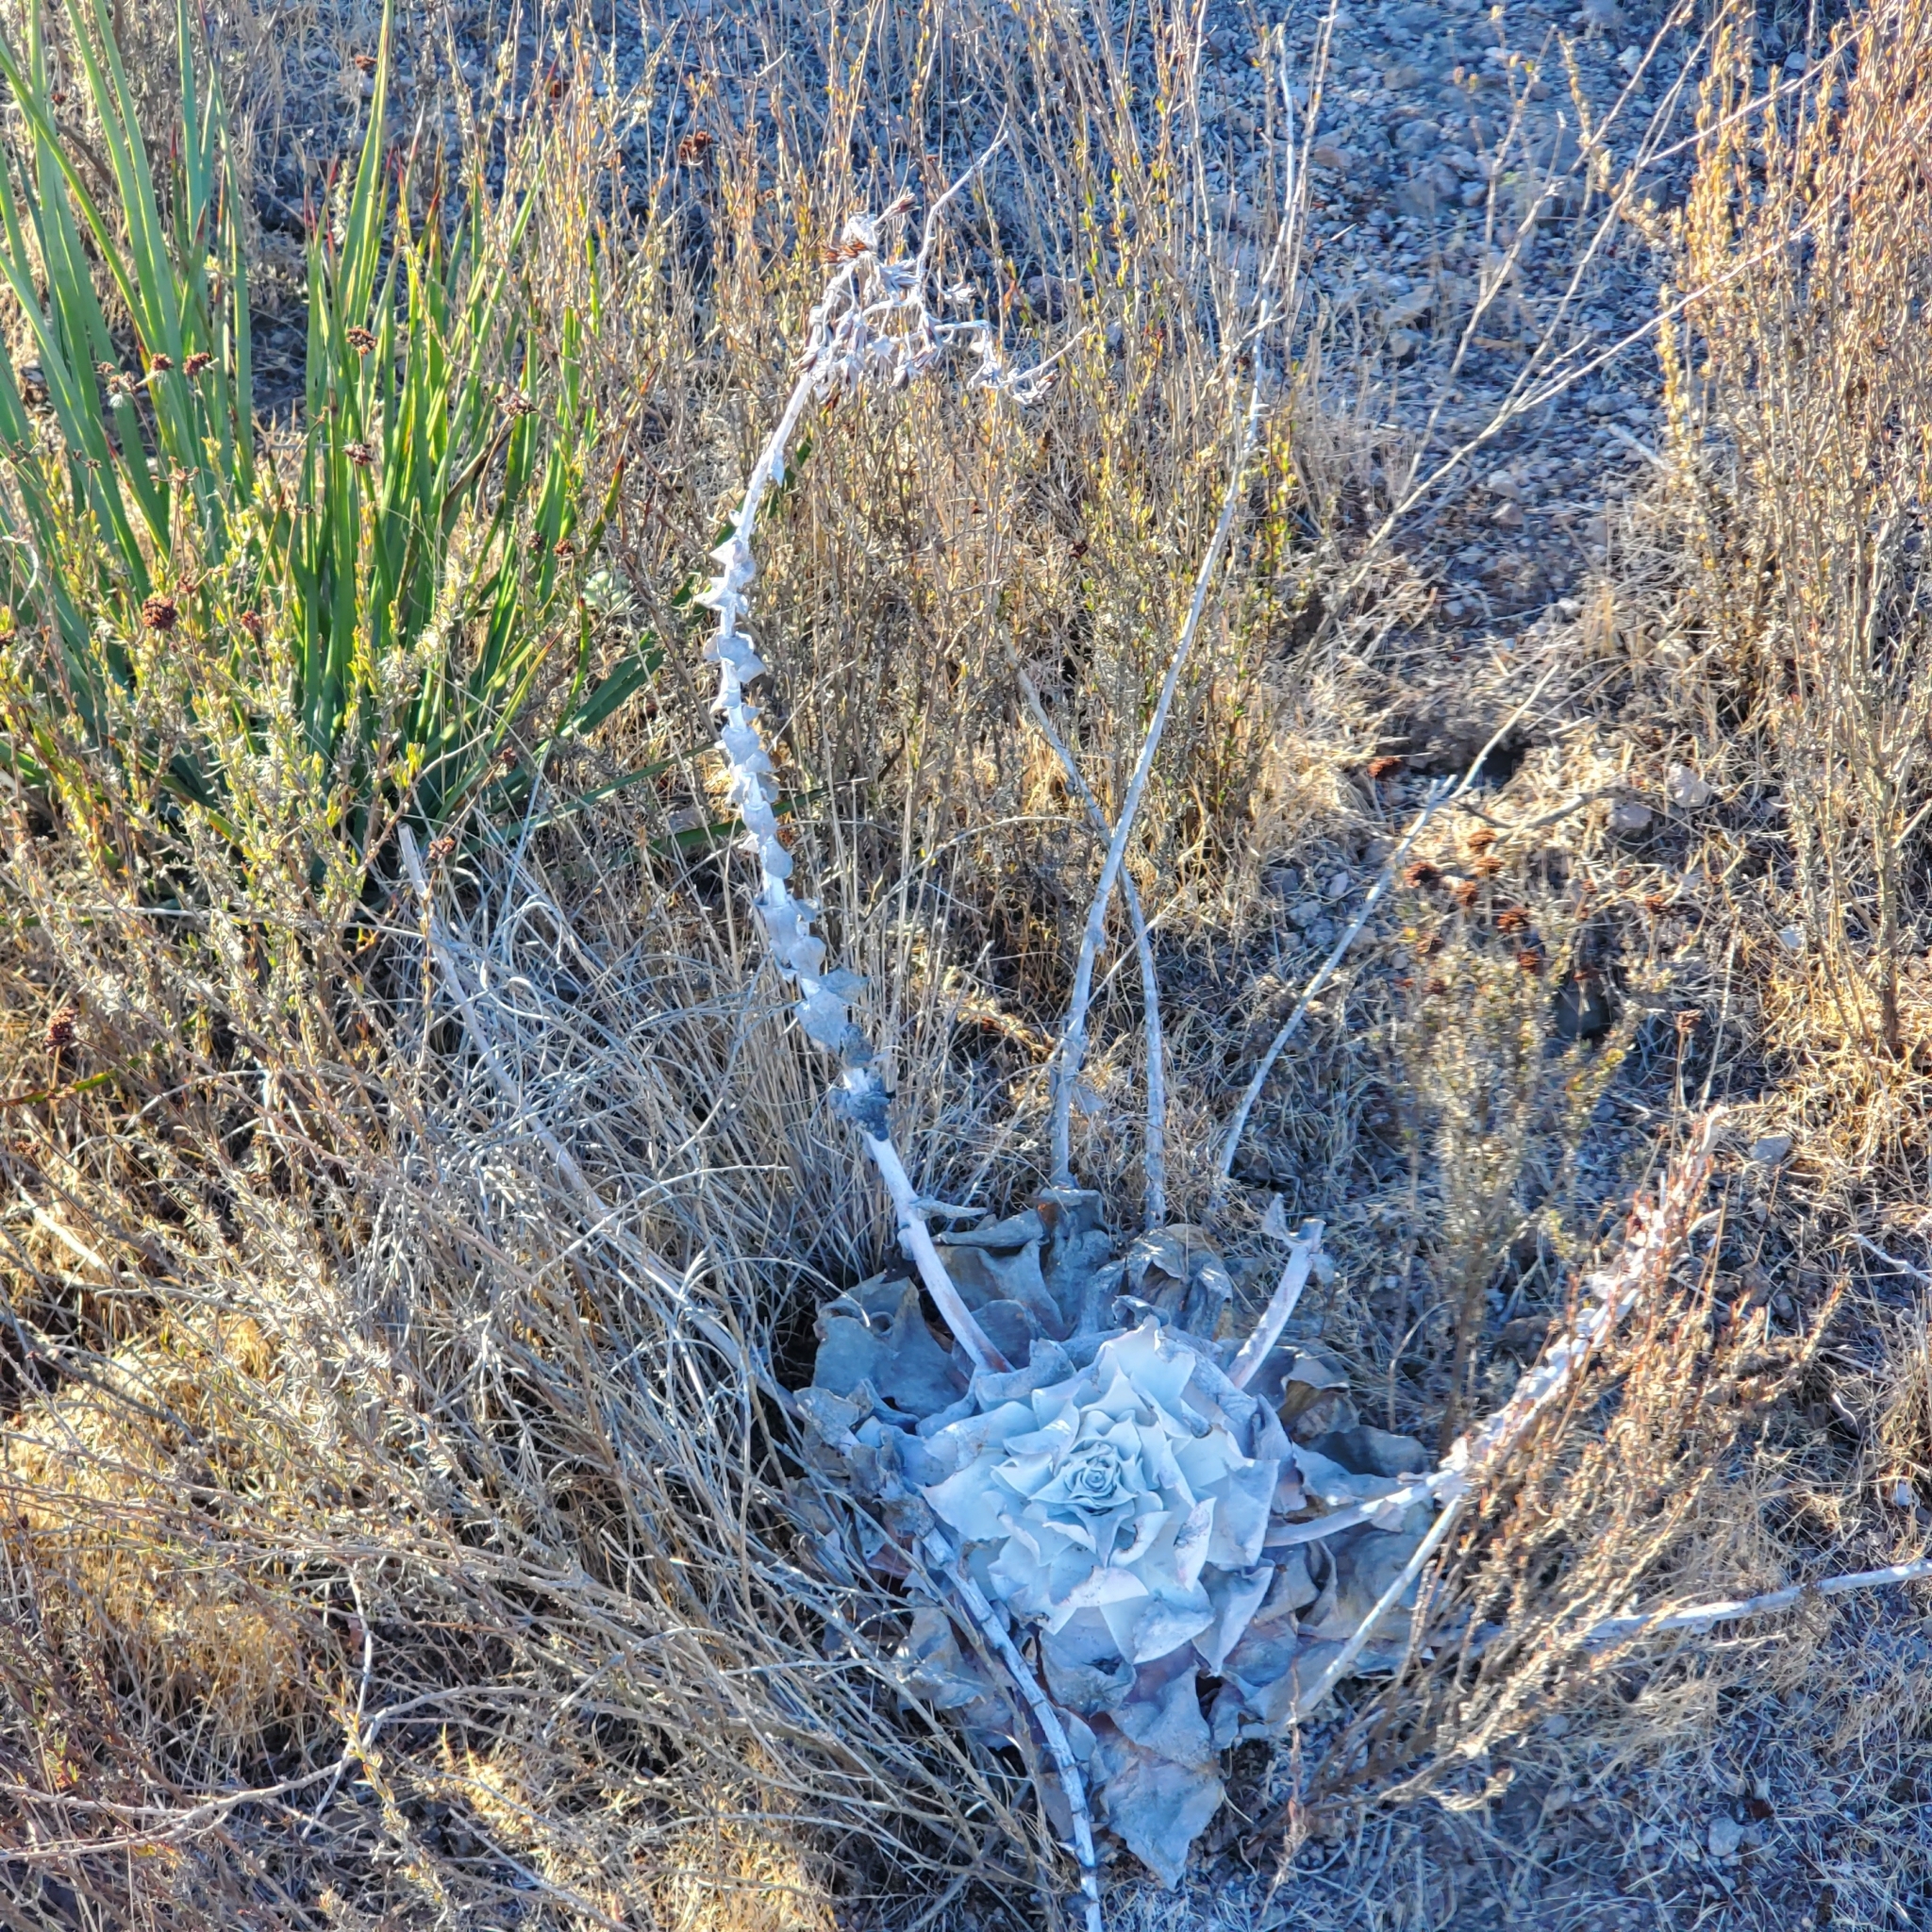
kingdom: Plantae
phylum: Tracheophyta
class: Magnoliopsida
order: Saxifragales
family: Crassulaceae
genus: Dudleya
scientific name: Dudleya pulverulenta
